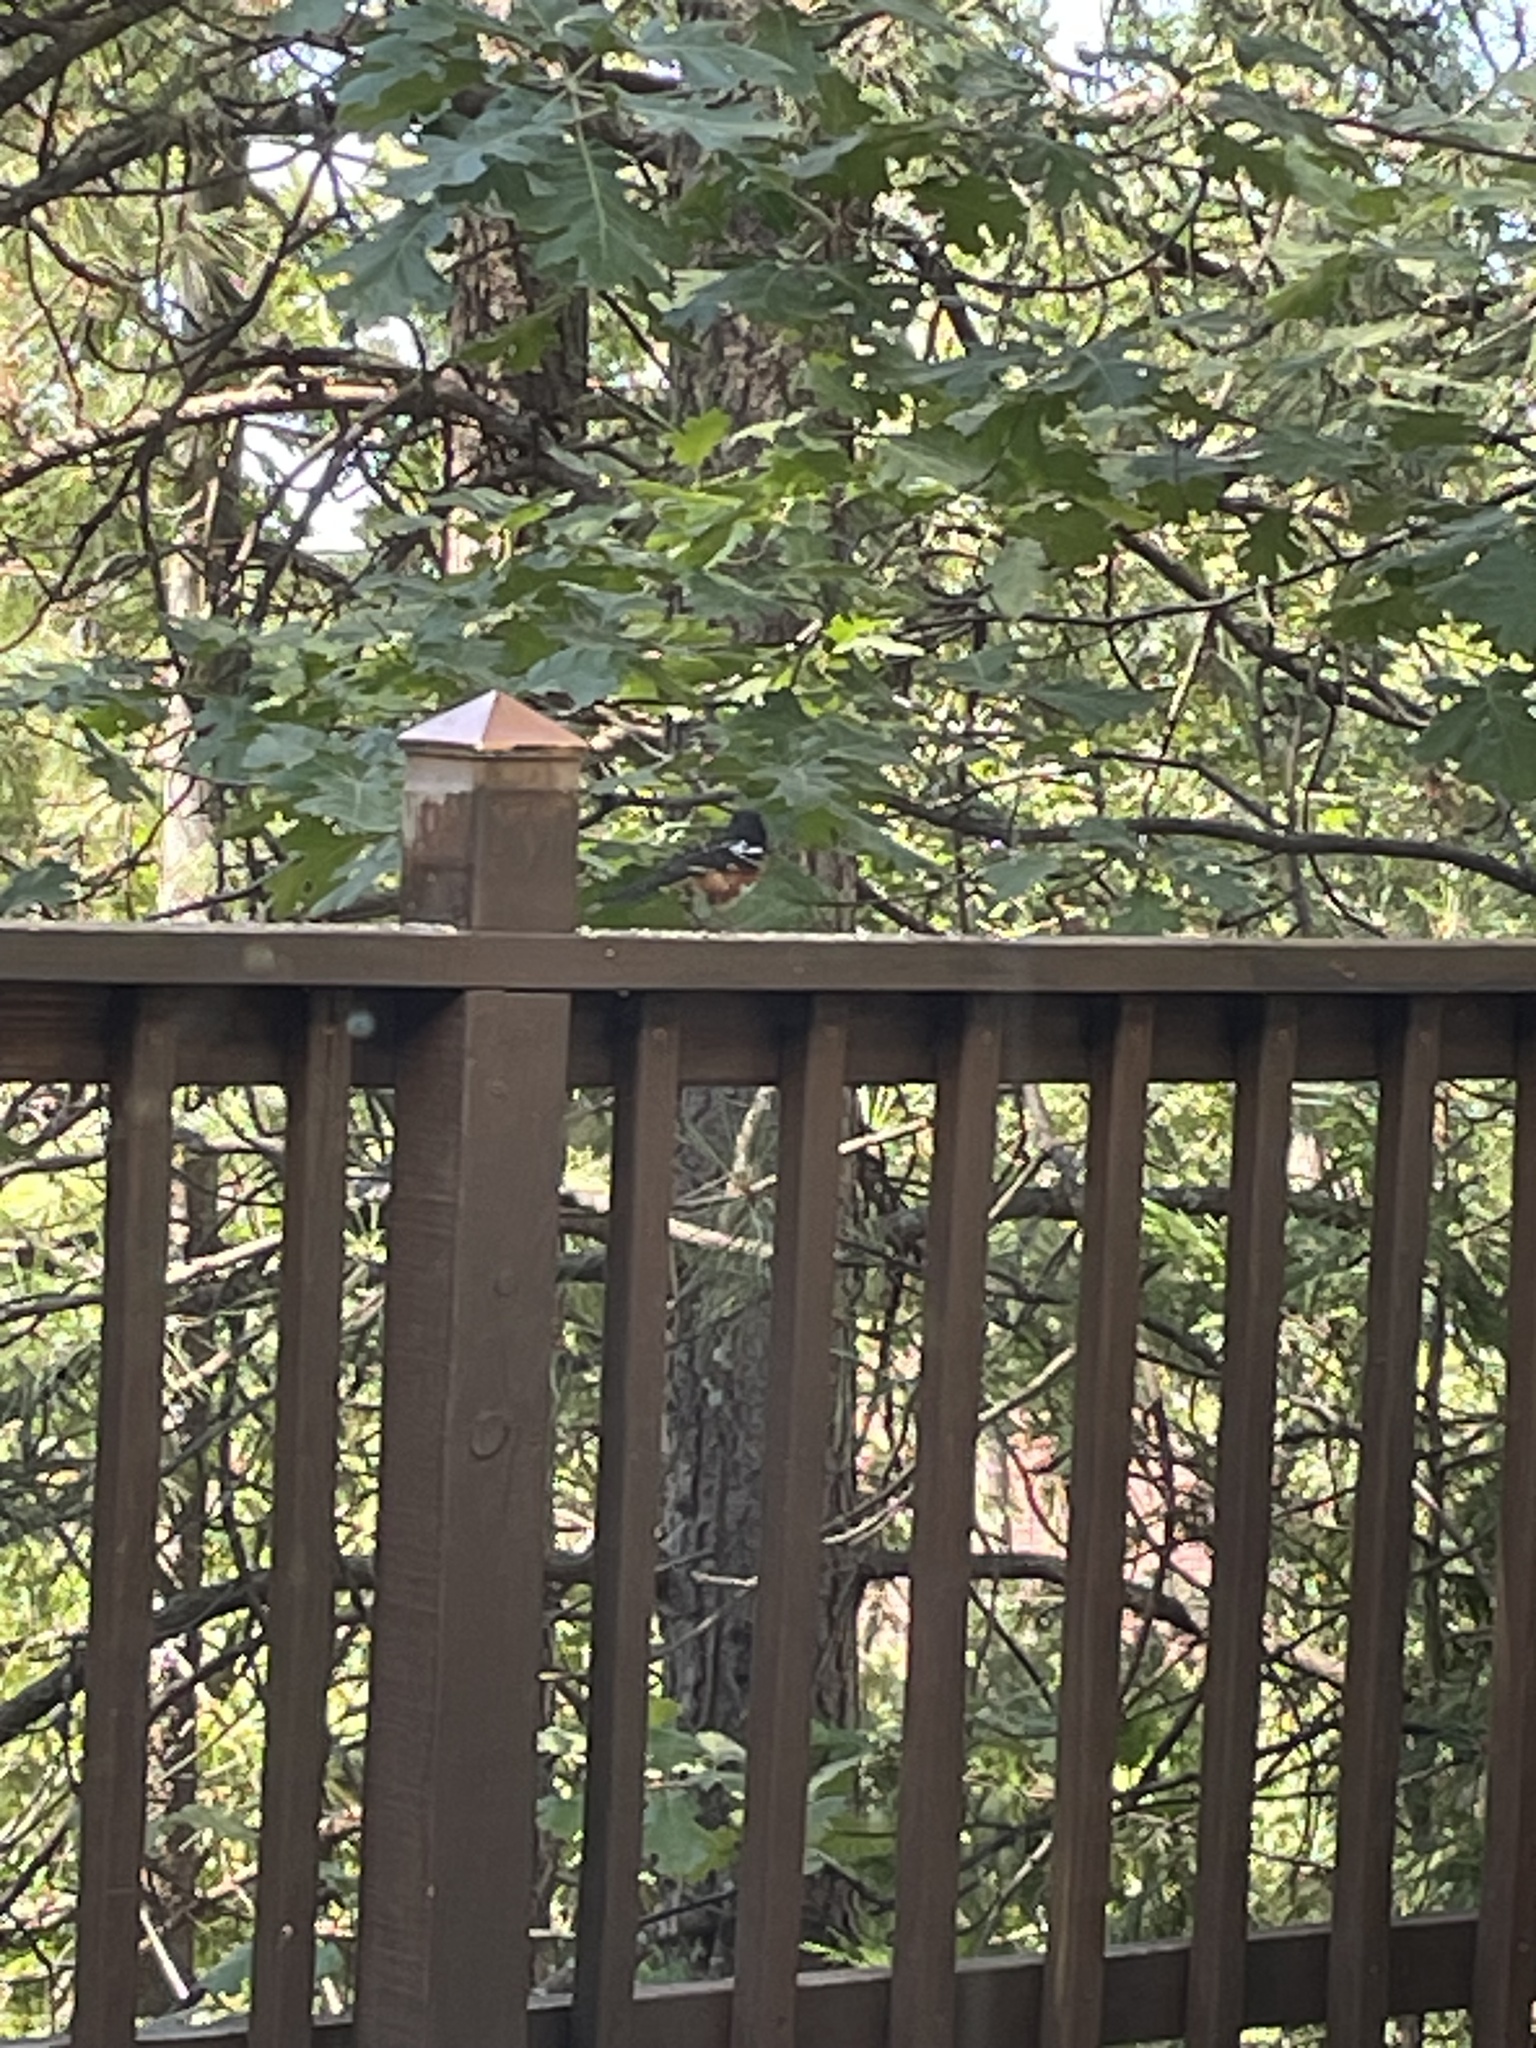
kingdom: Animalia
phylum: Chordata
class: Aves
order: Passeriformes
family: Passerellidae
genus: Pipilo
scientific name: Pipilo maculatus
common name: Spotted towhee
